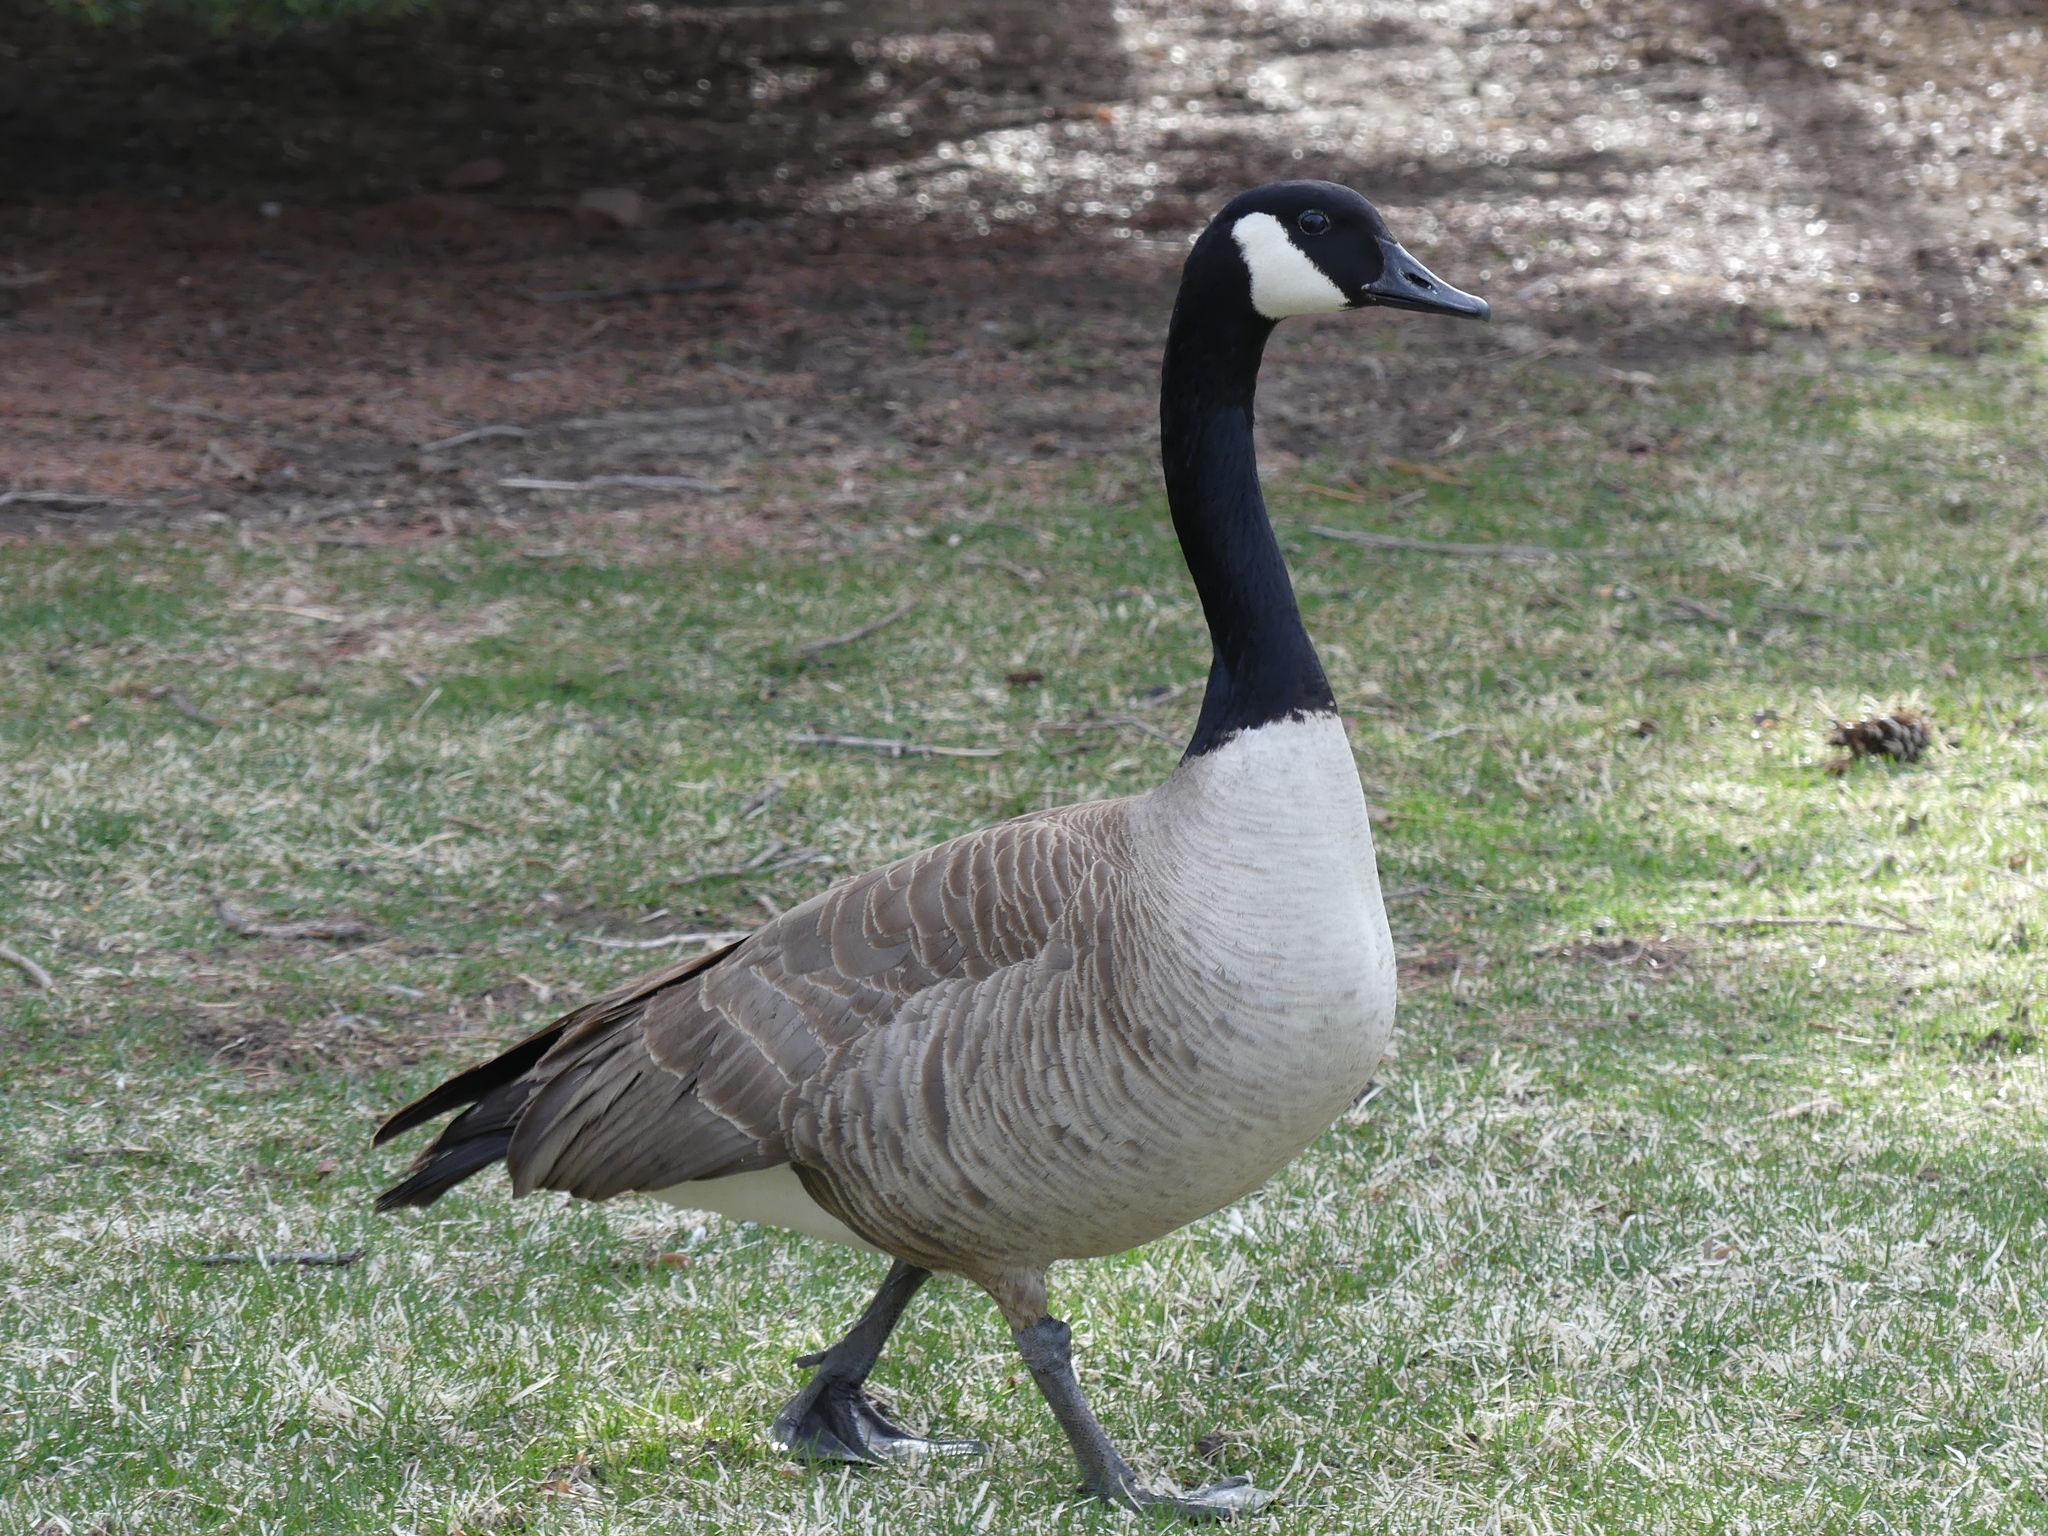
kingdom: Animalia
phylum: Chordata
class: Aves
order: Anseriformes
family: Anatidae
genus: Branta
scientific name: Branta canadensis
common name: Canada goose
